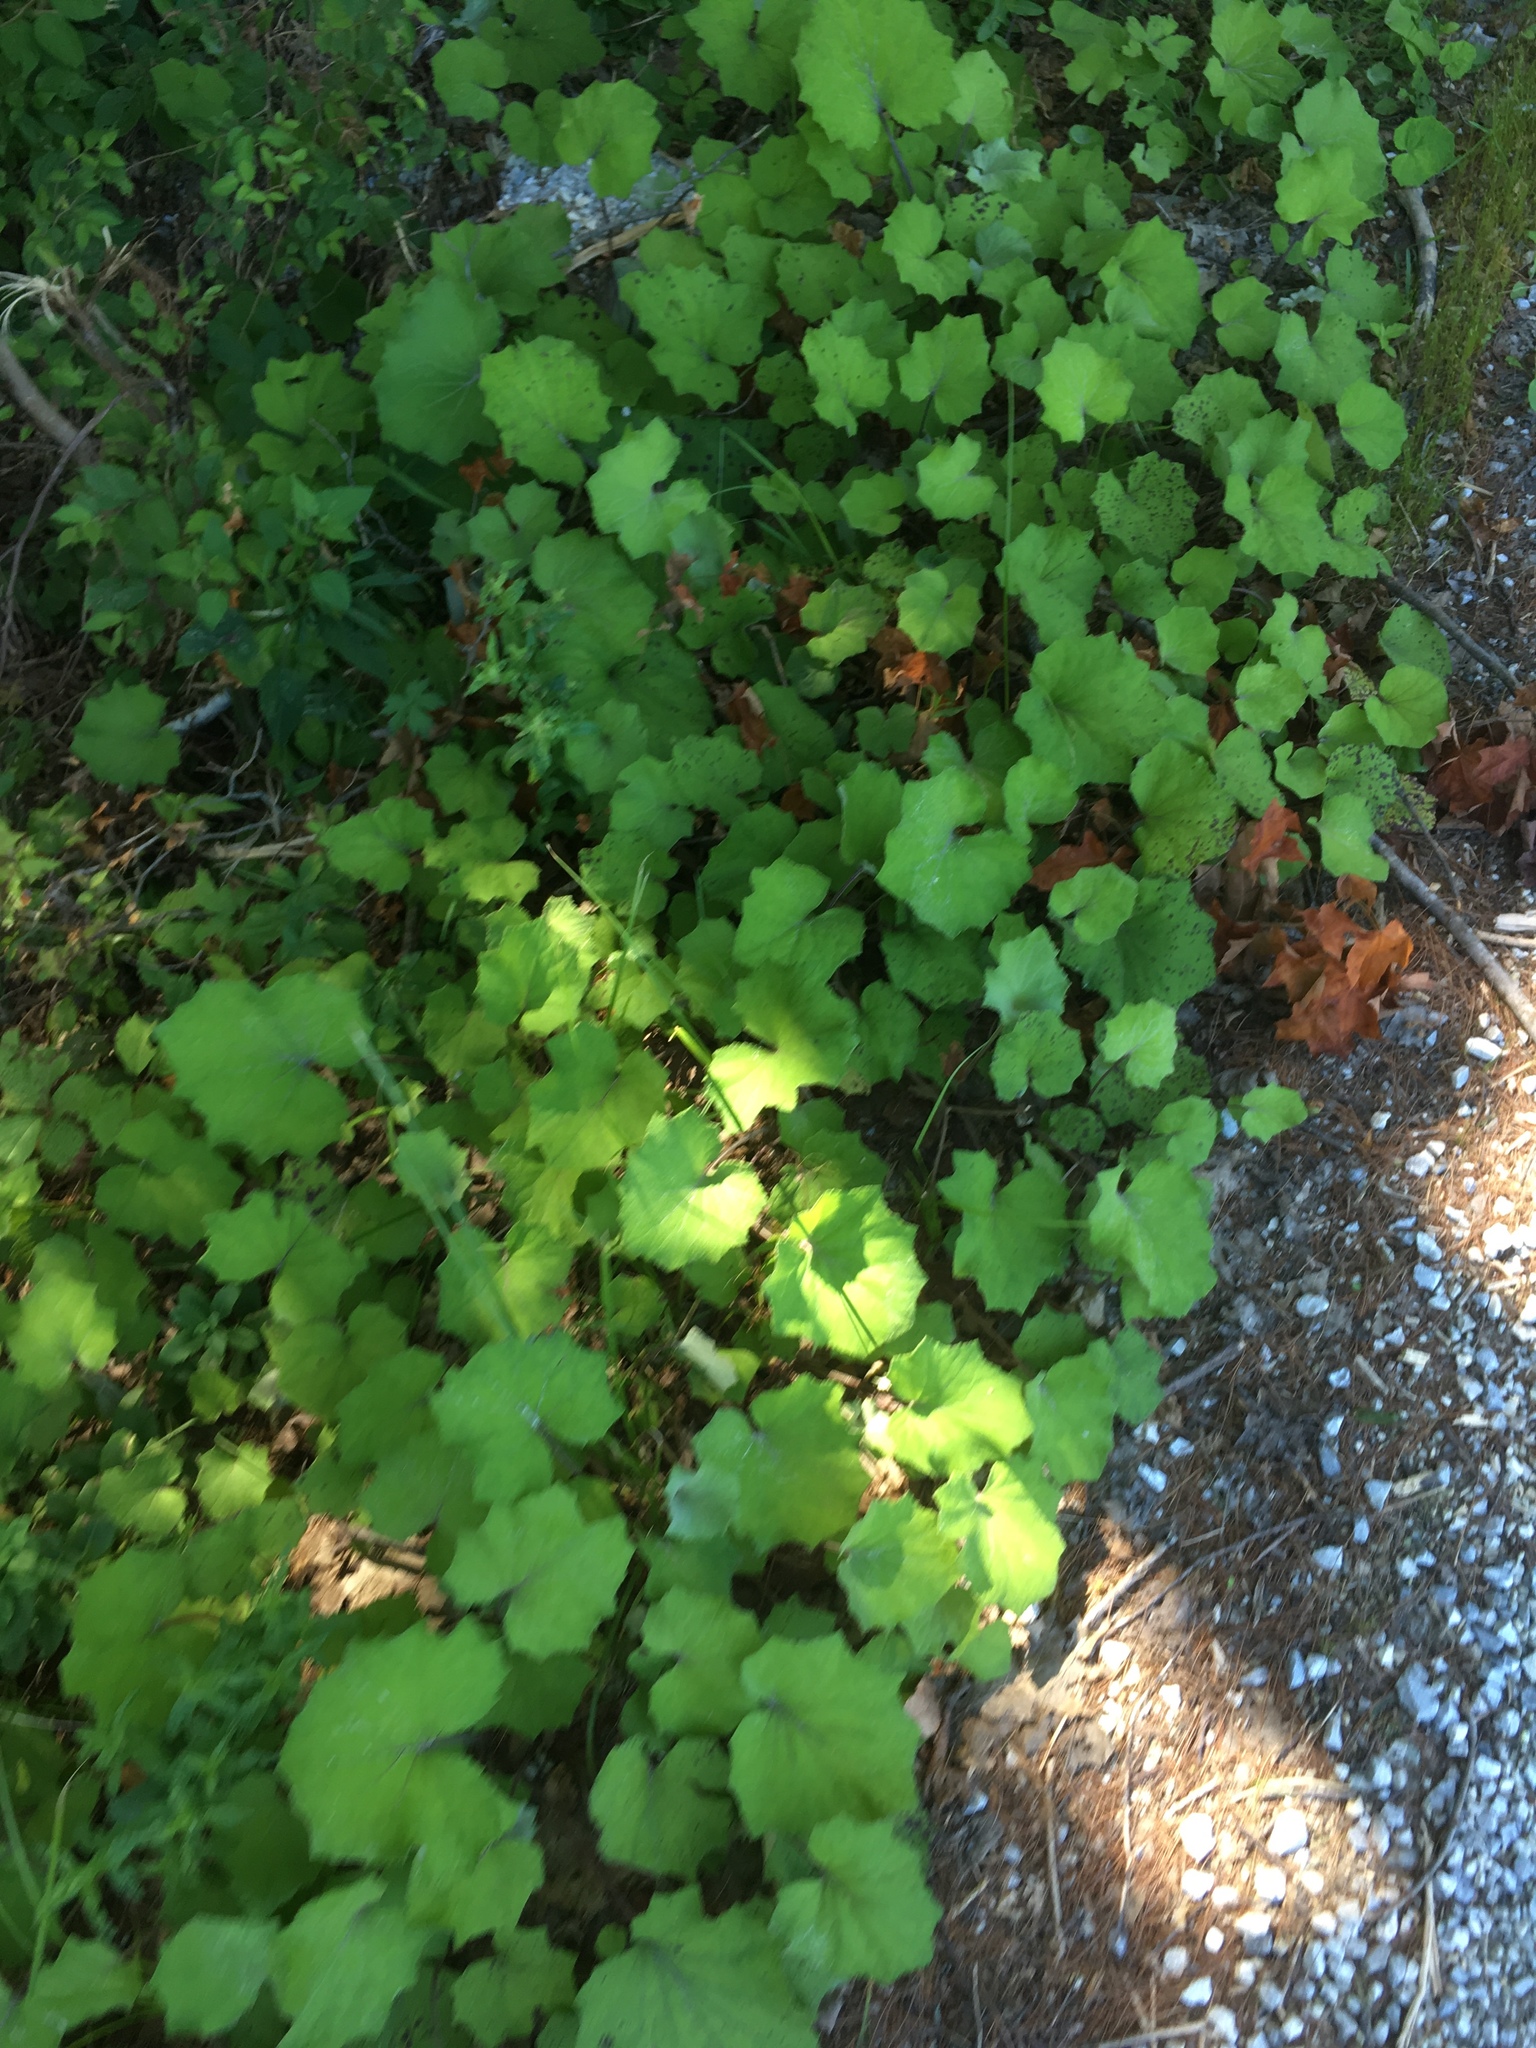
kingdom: Plantae
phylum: Tracheophyta
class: Magnoliopsida
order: Asterales
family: Asteraceae
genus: Tussilago
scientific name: Tussilago farfara
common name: Coltsfoot
